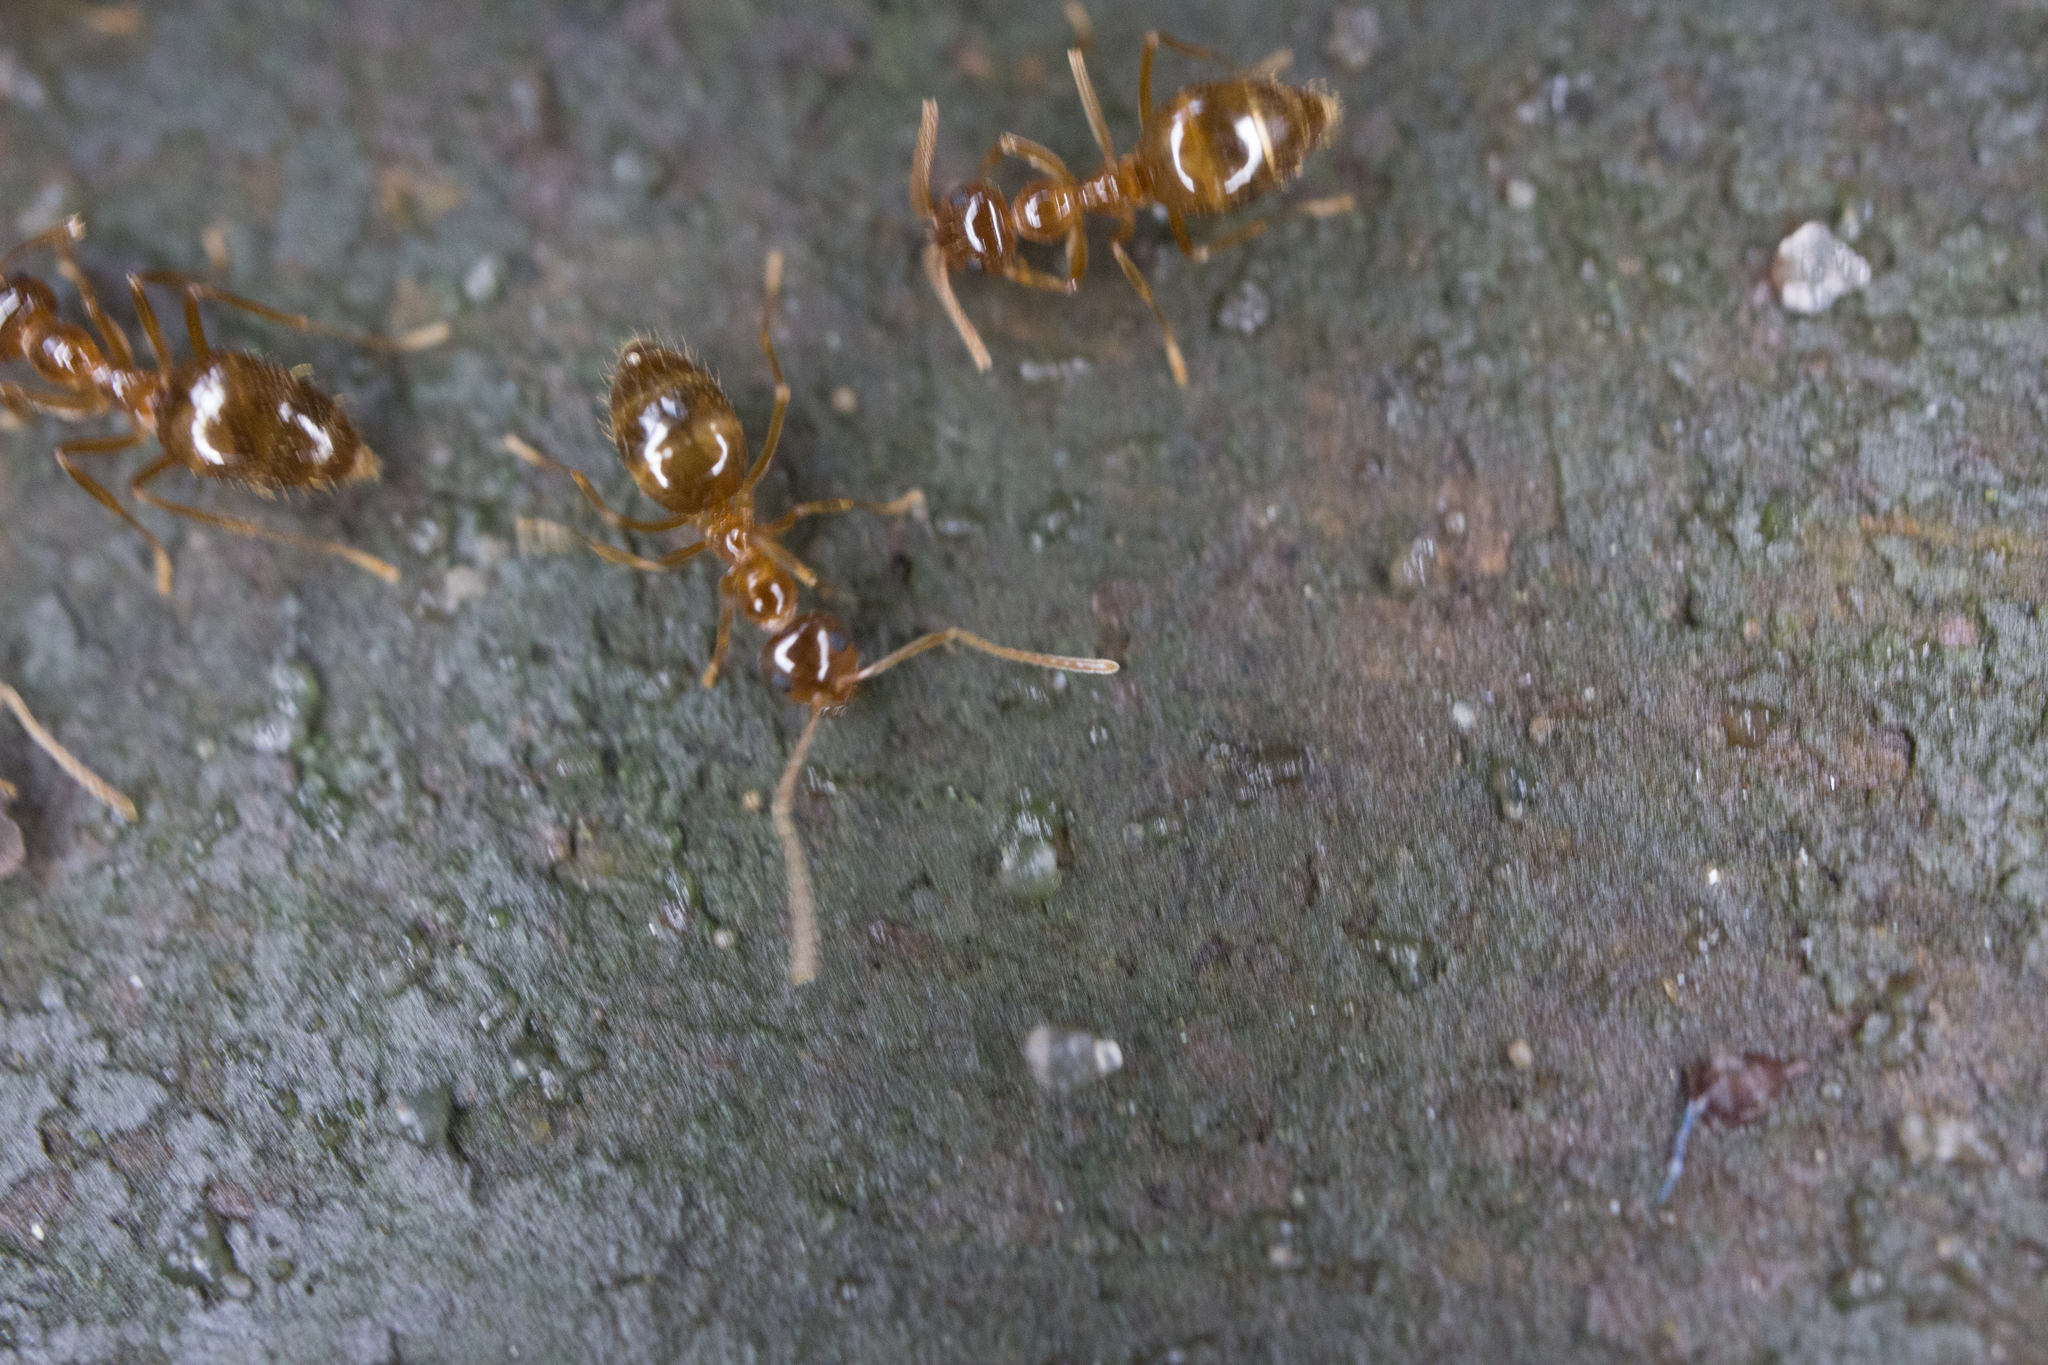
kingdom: Animalia
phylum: Arthropoda
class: Insecta
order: Hymenoptera
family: Formicidae
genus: Prenolepis
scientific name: Prenolepis imparis
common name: Small honey ant
